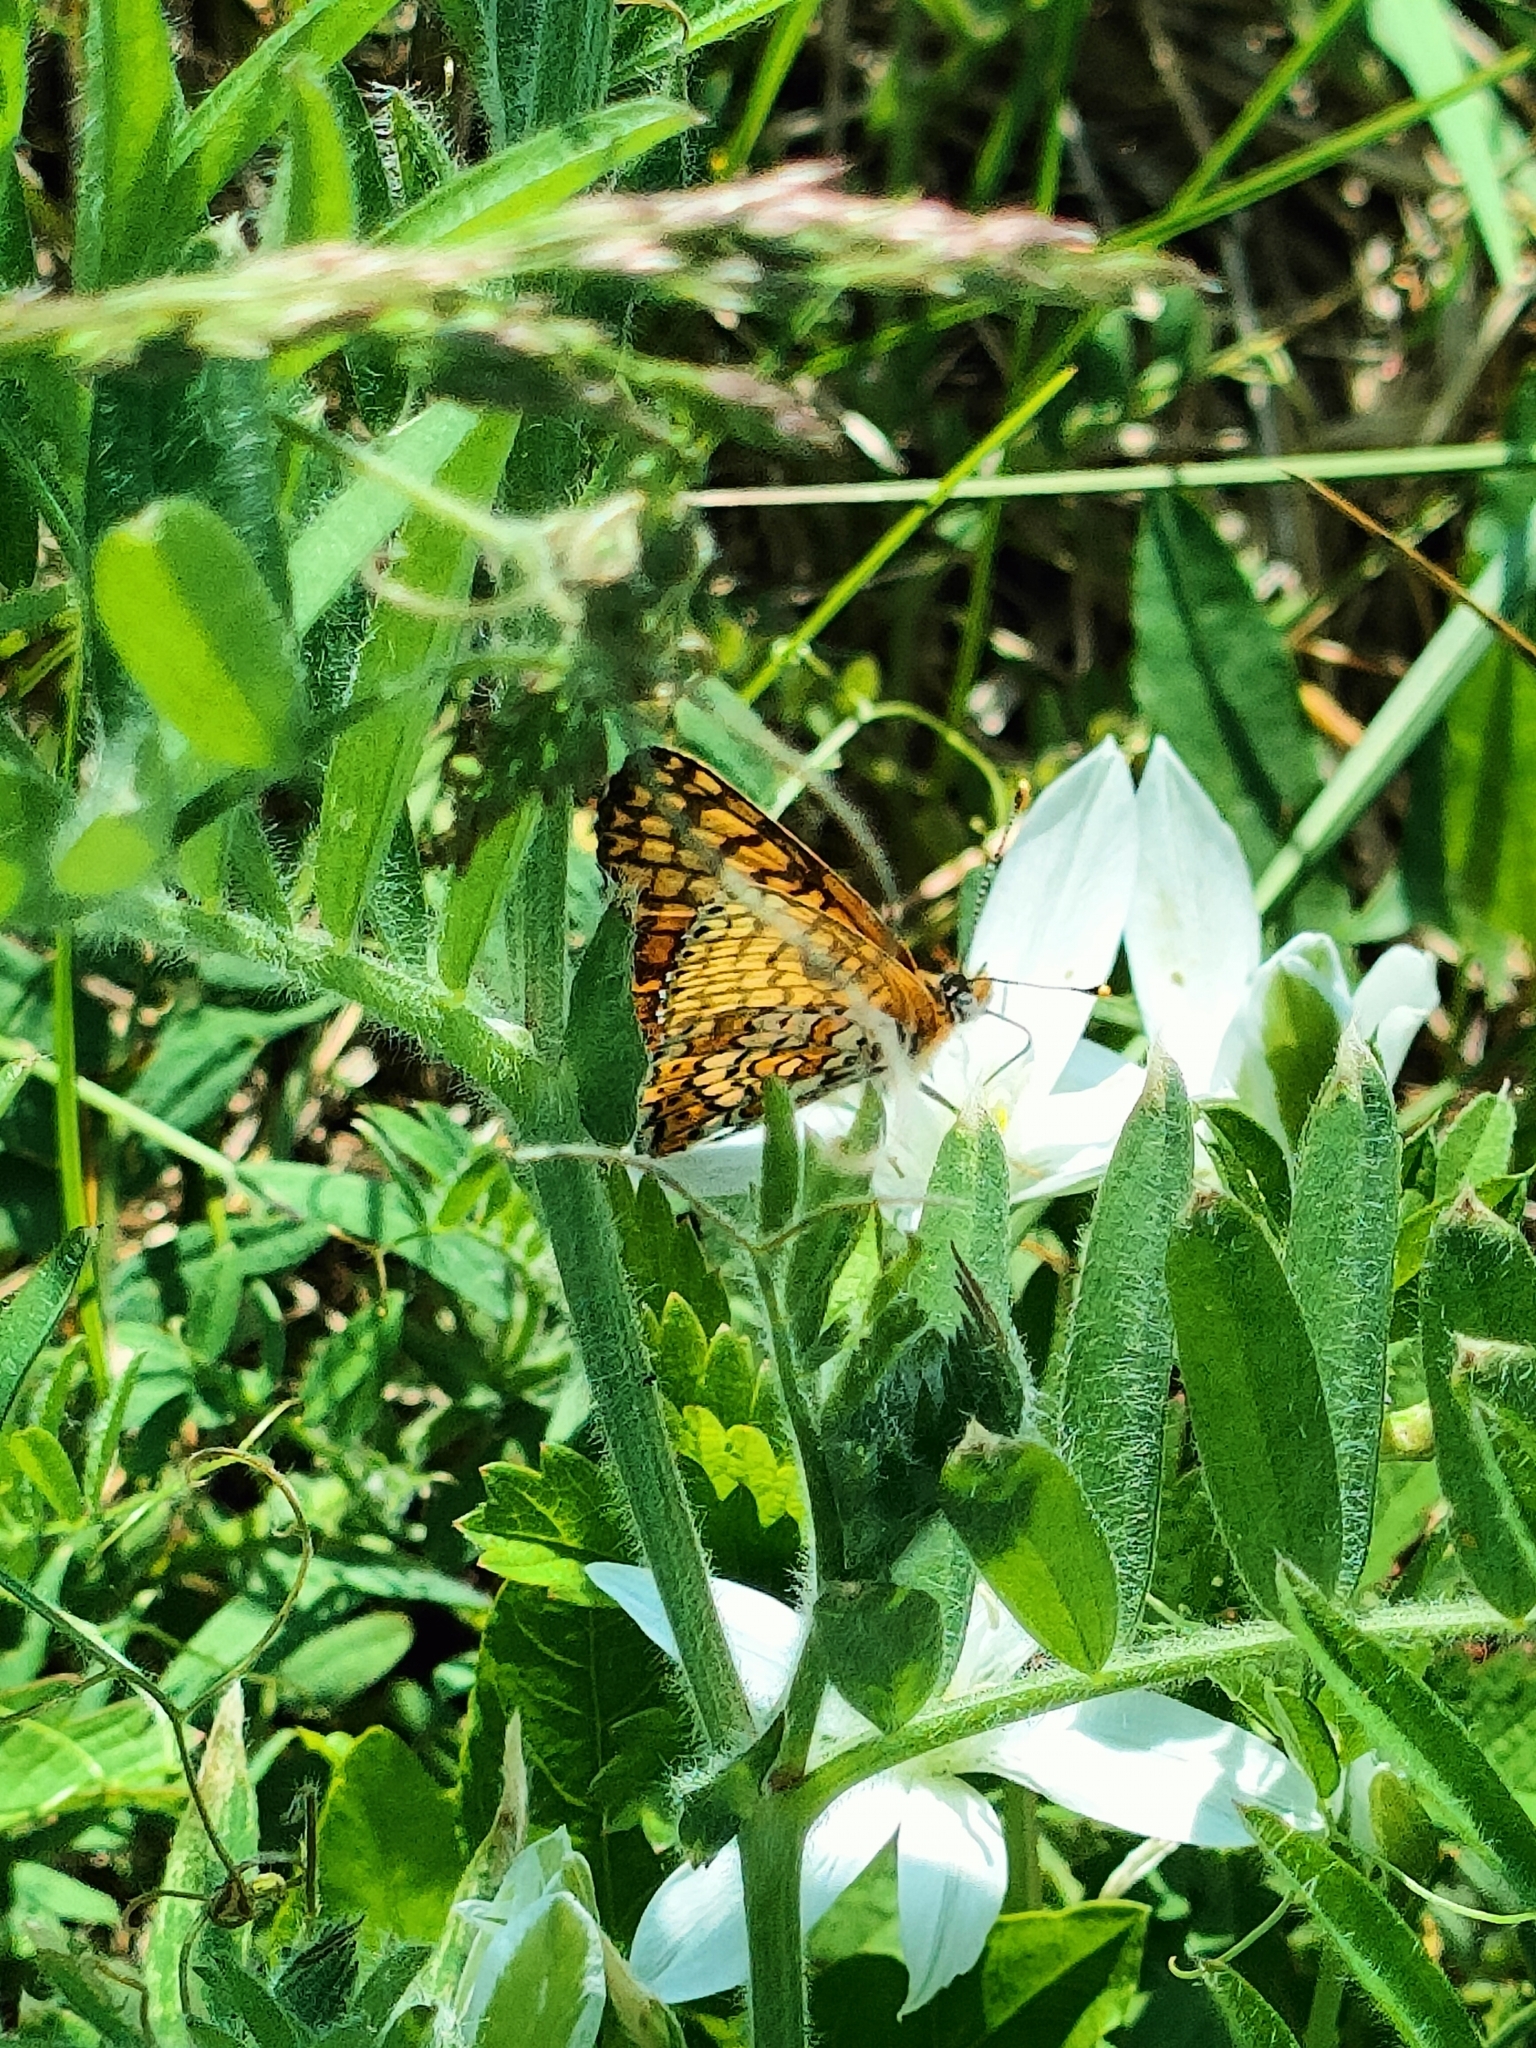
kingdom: Animalia
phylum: Arthropoda
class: Insecta
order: Lepidoptera
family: Nymphalidae
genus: Melitaea
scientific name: Melitaea cinxia
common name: Glanville fritillary
